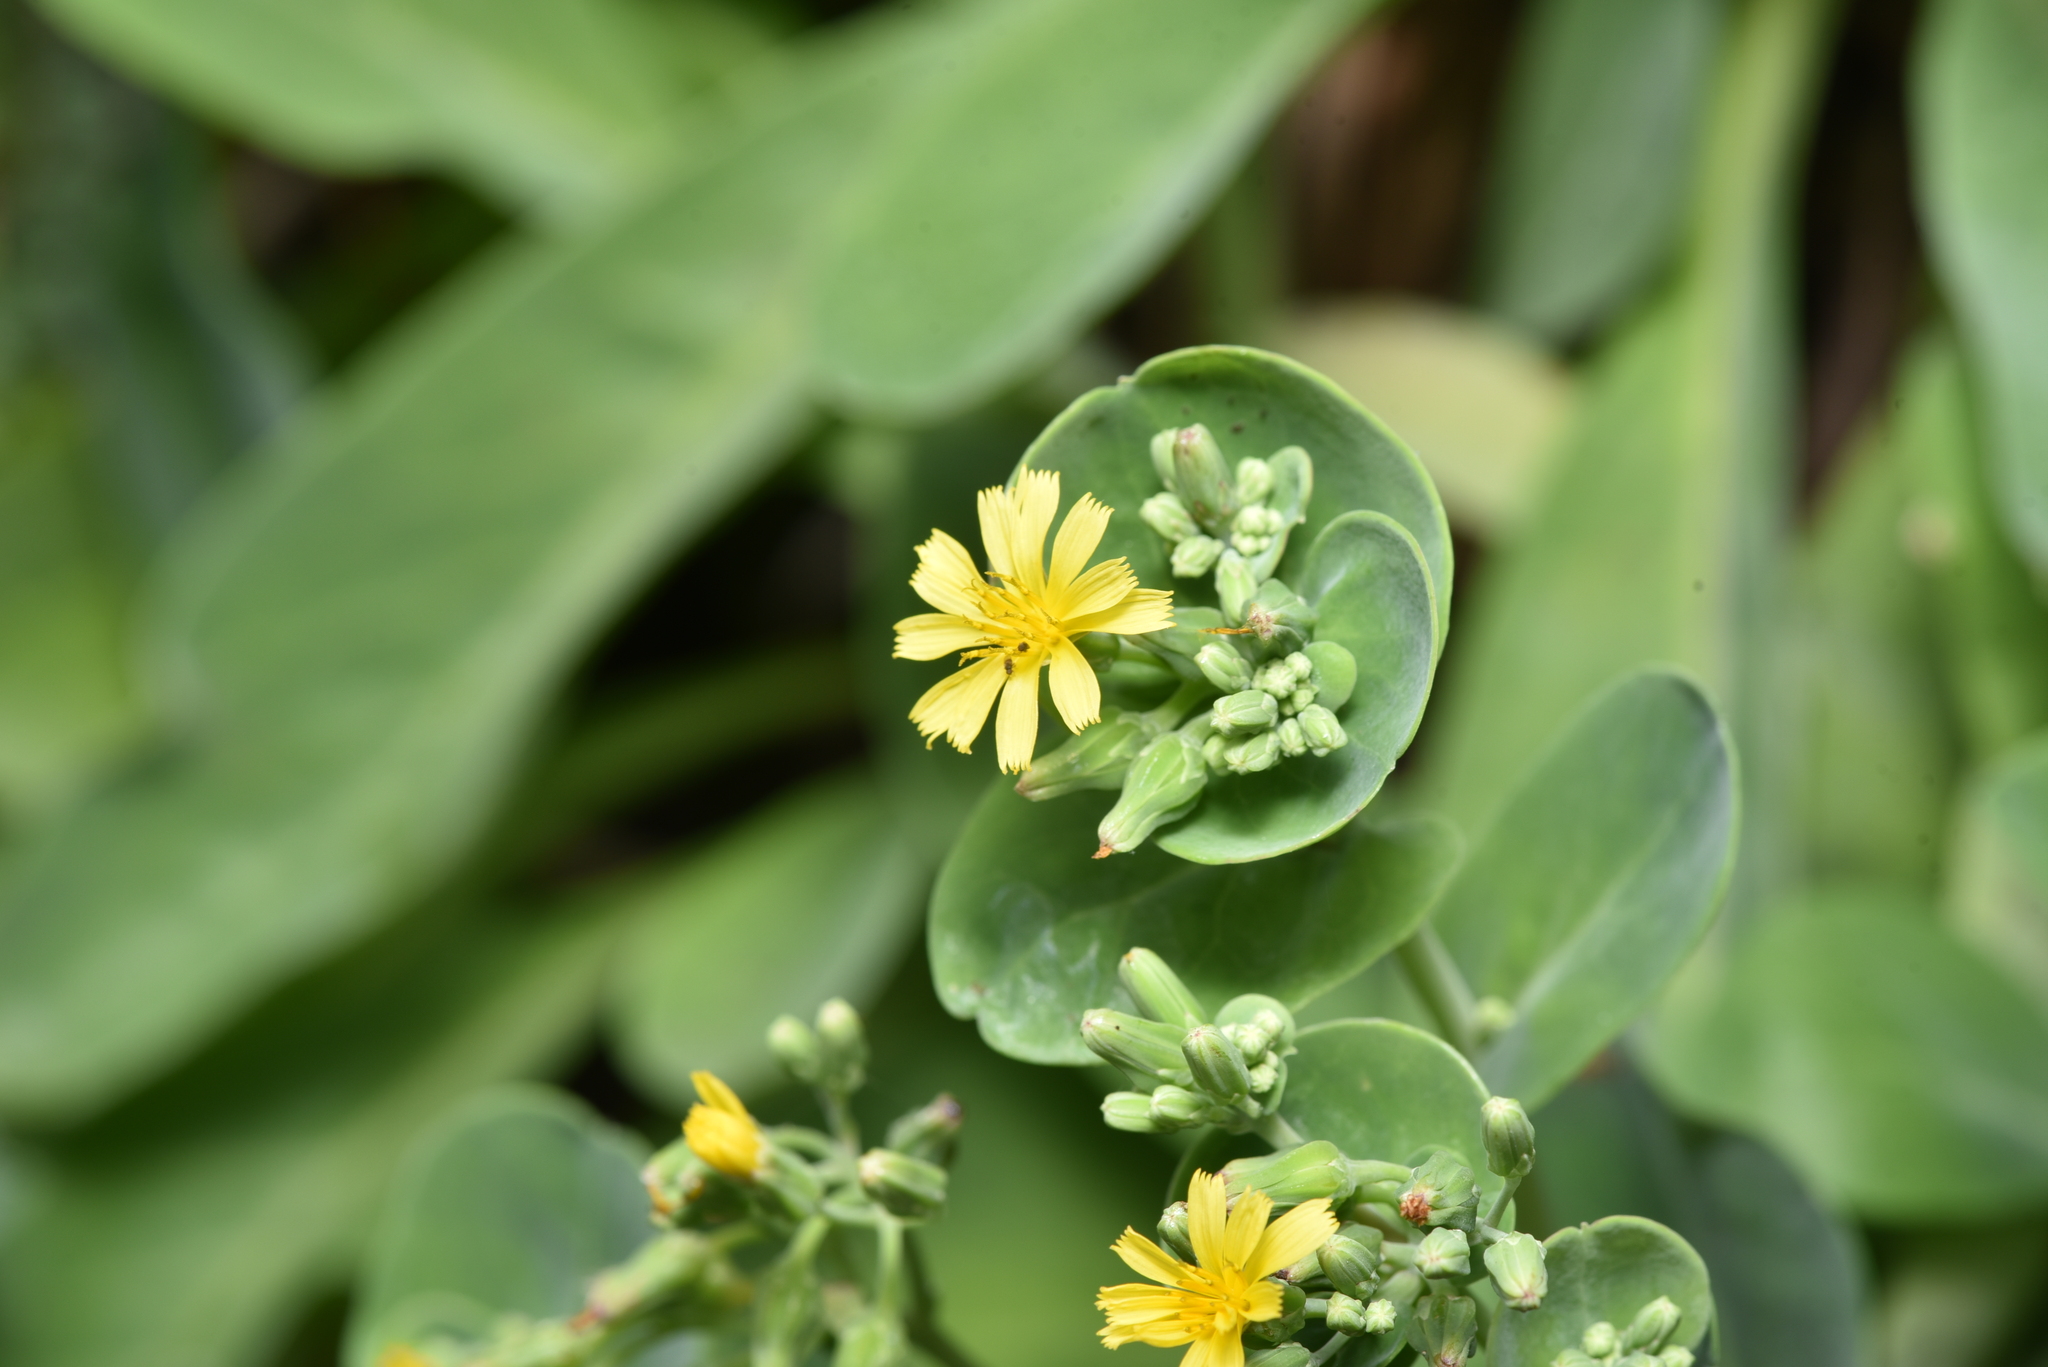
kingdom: Plantae
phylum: Tracheophyta
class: Magnoliopsida
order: Asterales
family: Asteraceae
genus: Crepidiastrum
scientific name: Crepidiastrum taiwanianum
